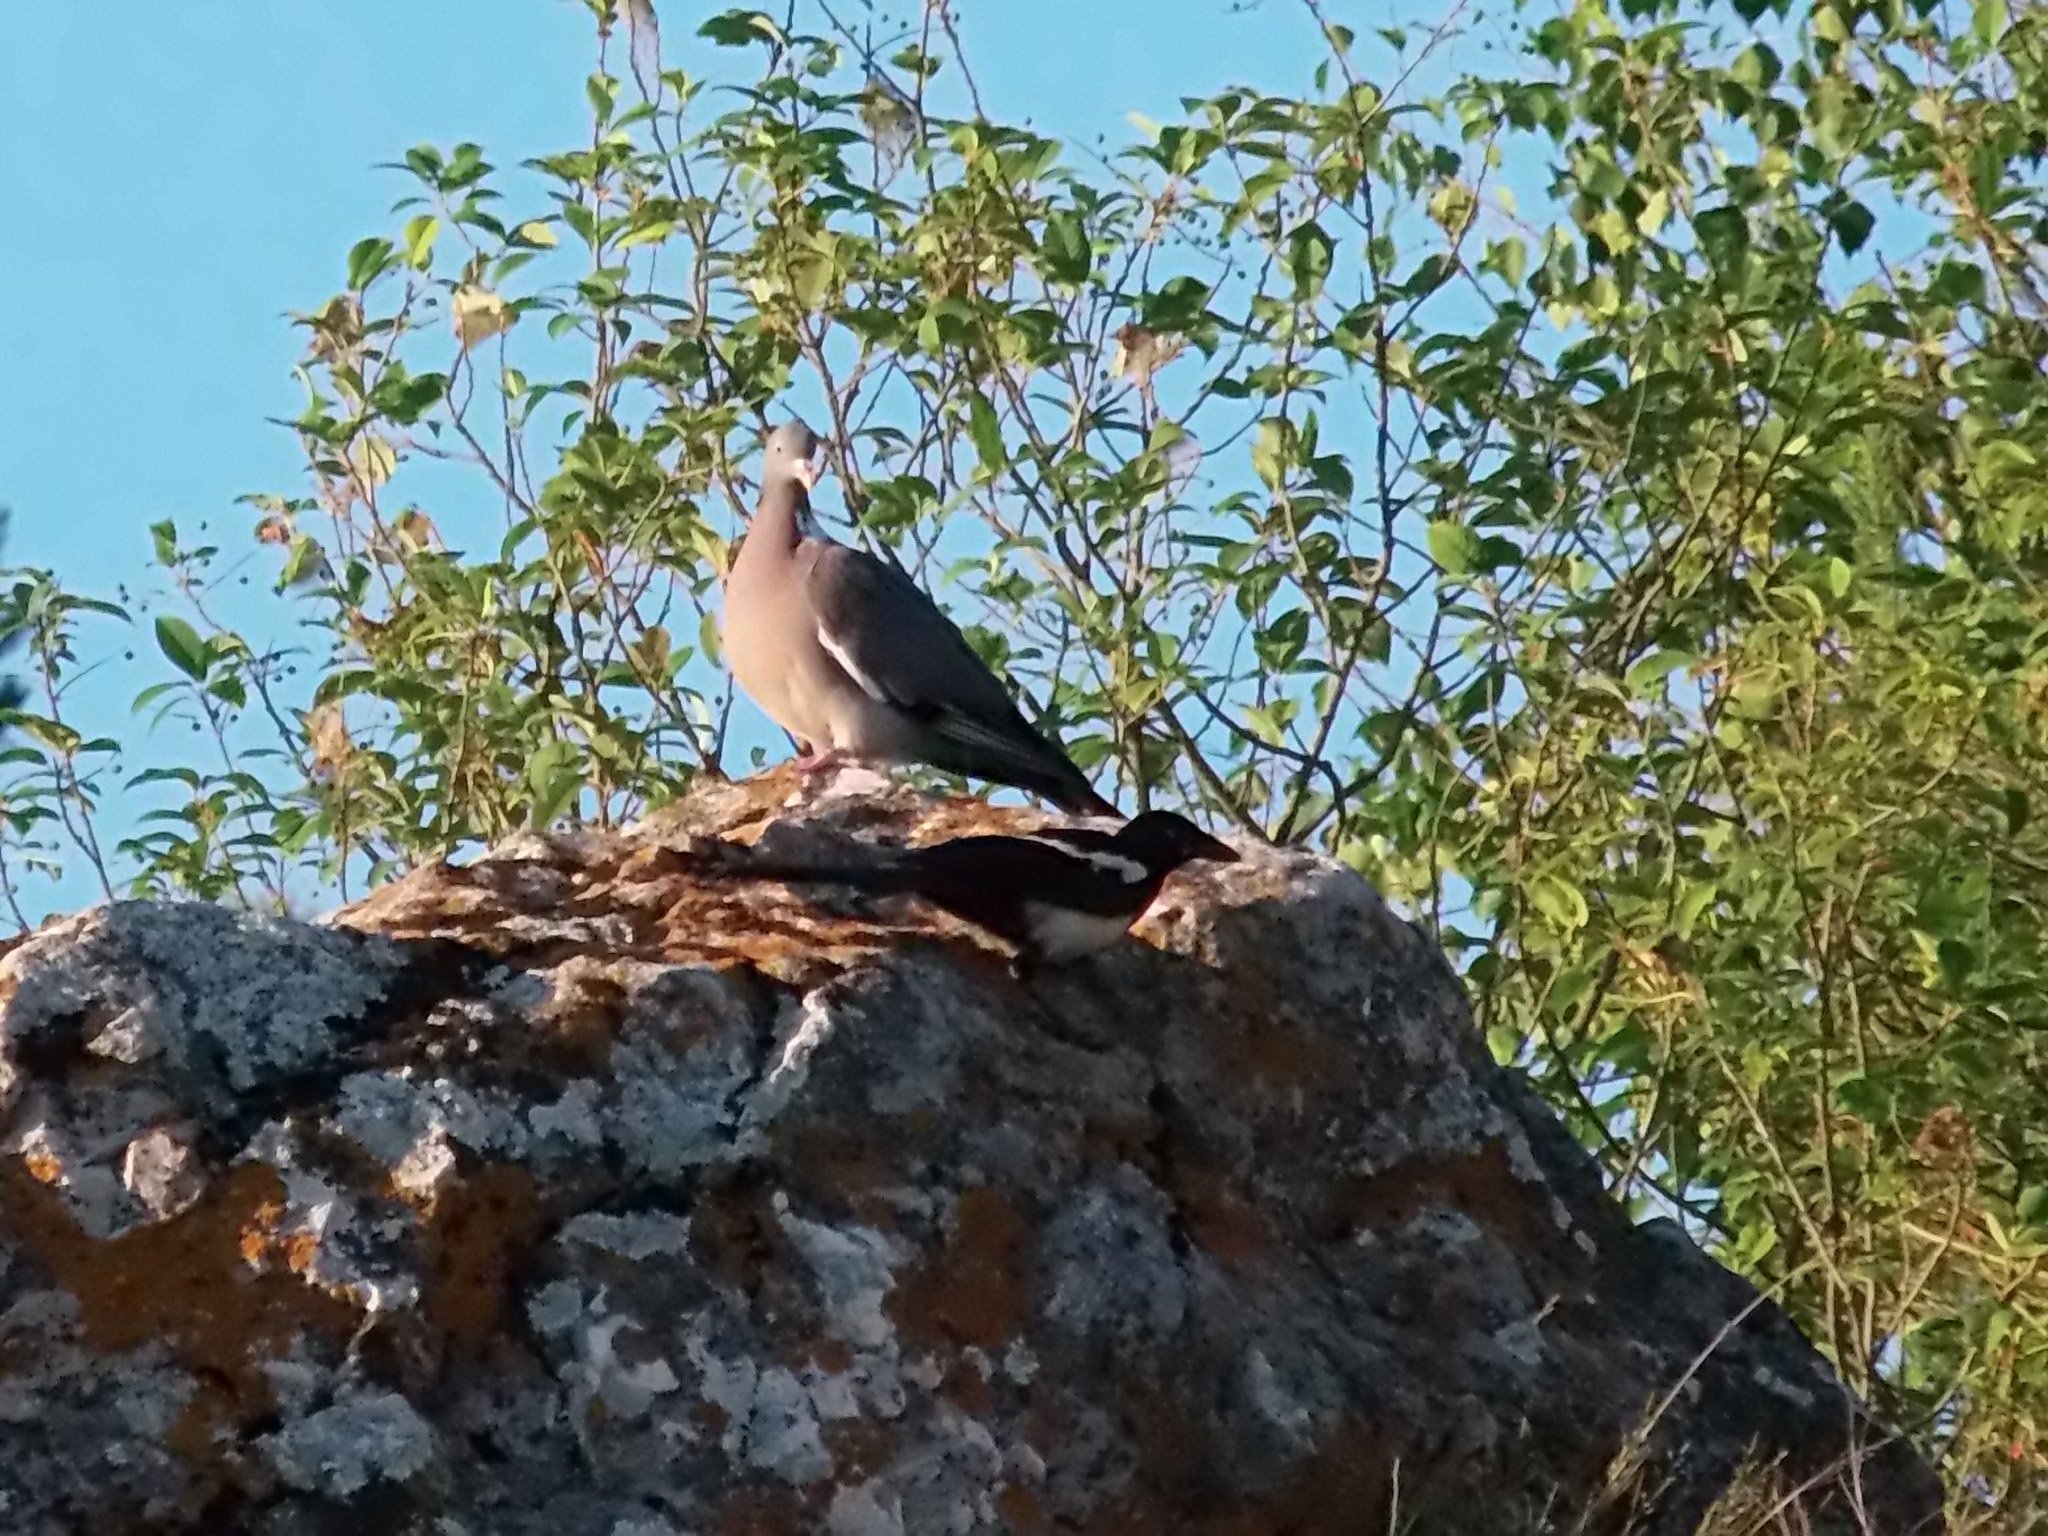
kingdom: Animalia
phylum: Chordata
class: Aves
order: Columbiformes
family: Columbidae
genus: Columba
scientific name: Columba palumbus
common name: Common wood pigeon
